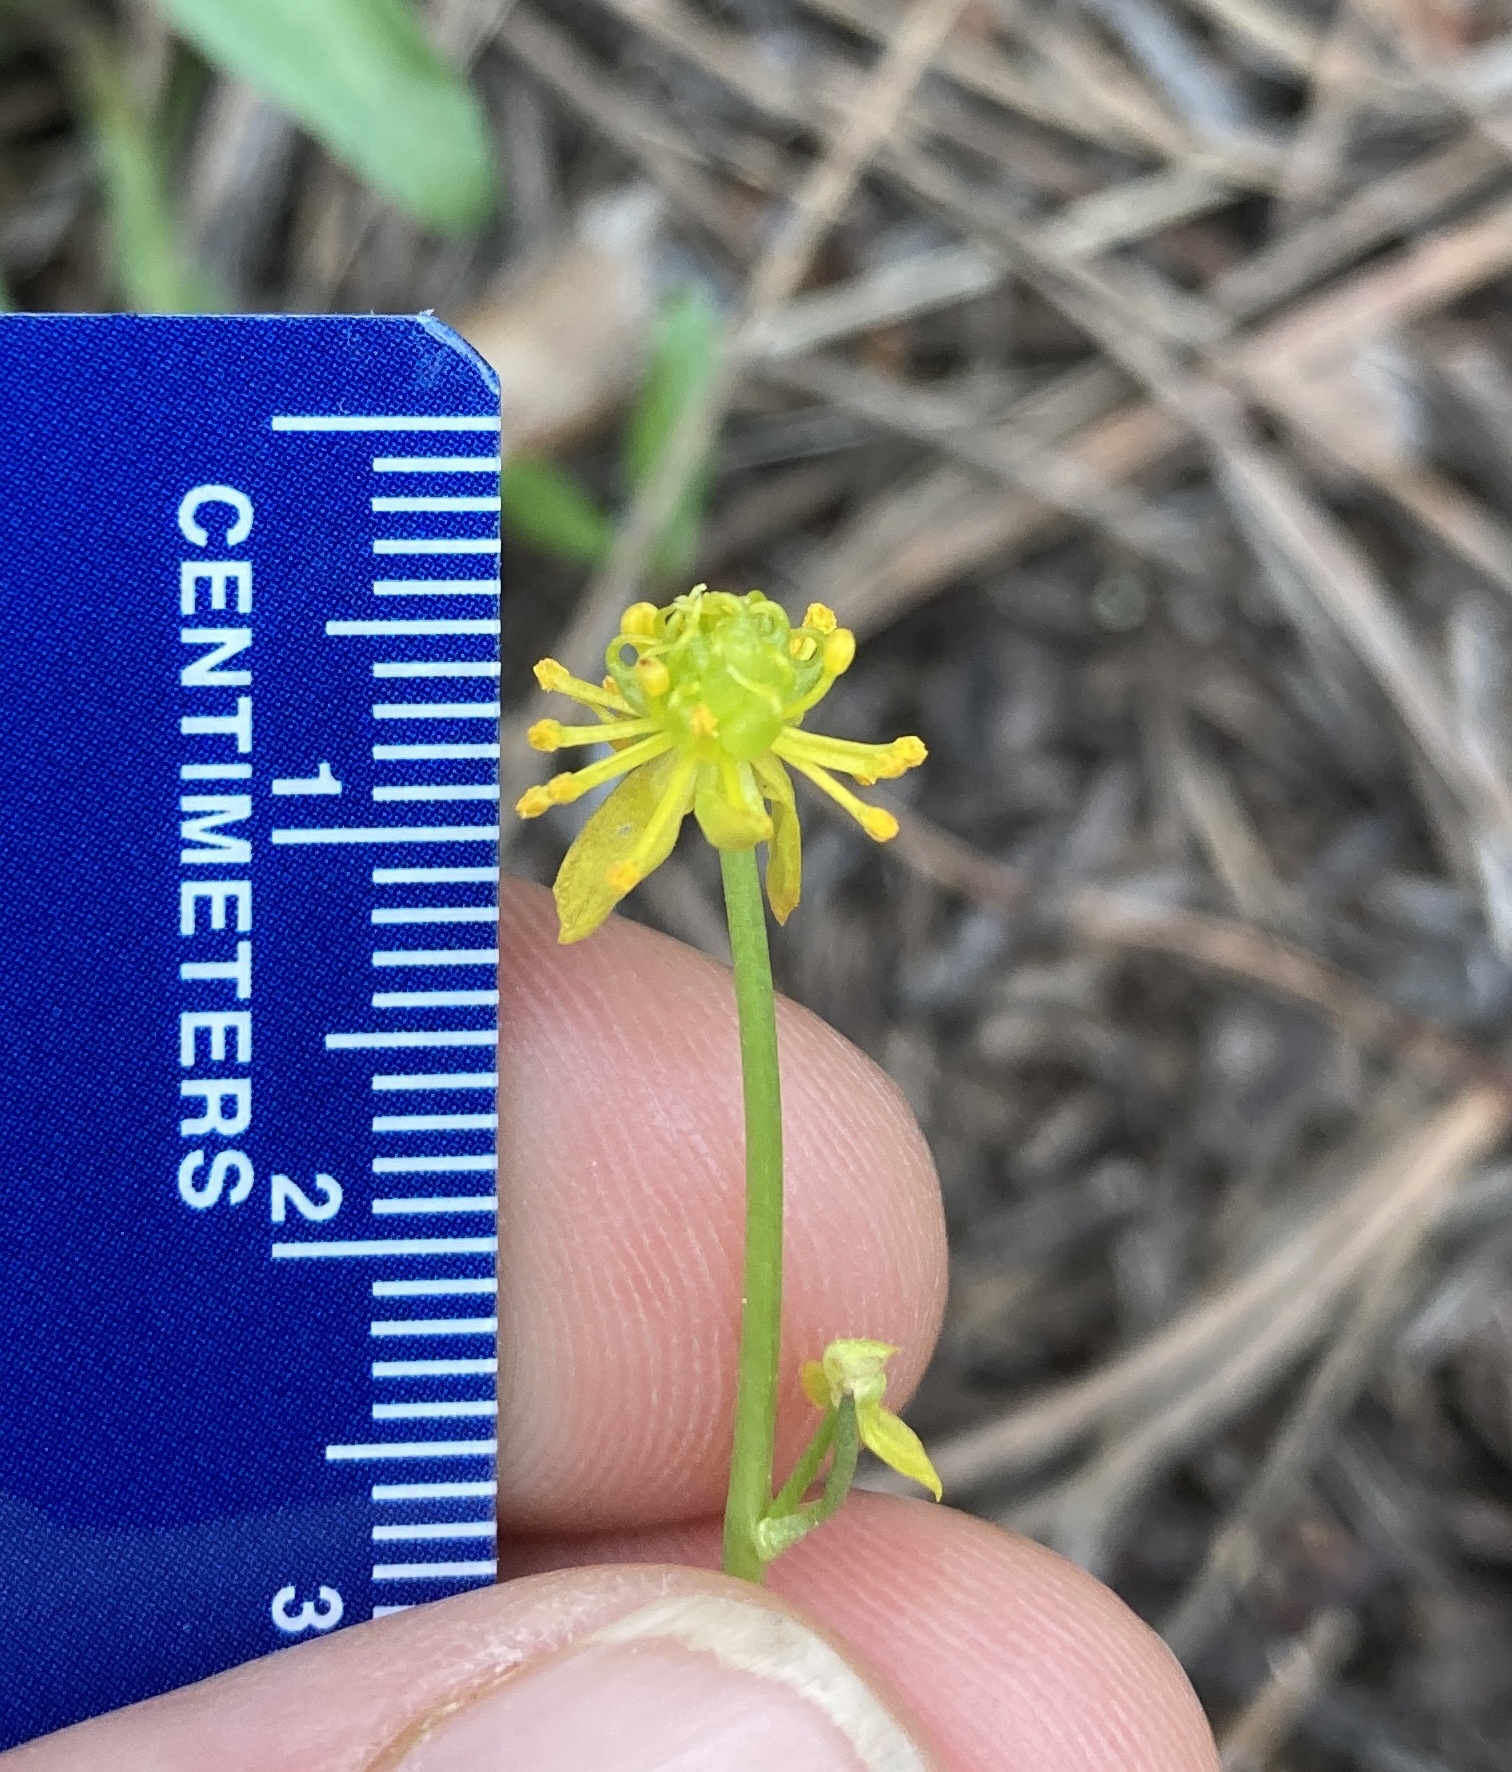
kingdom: Plantae
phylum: Tracheophyta
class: Magnoliopsida
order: Ranunculales
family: Ranunculaceae
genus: Cyrtorhyncha
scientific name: Cyrtorhyncha ranunculina
